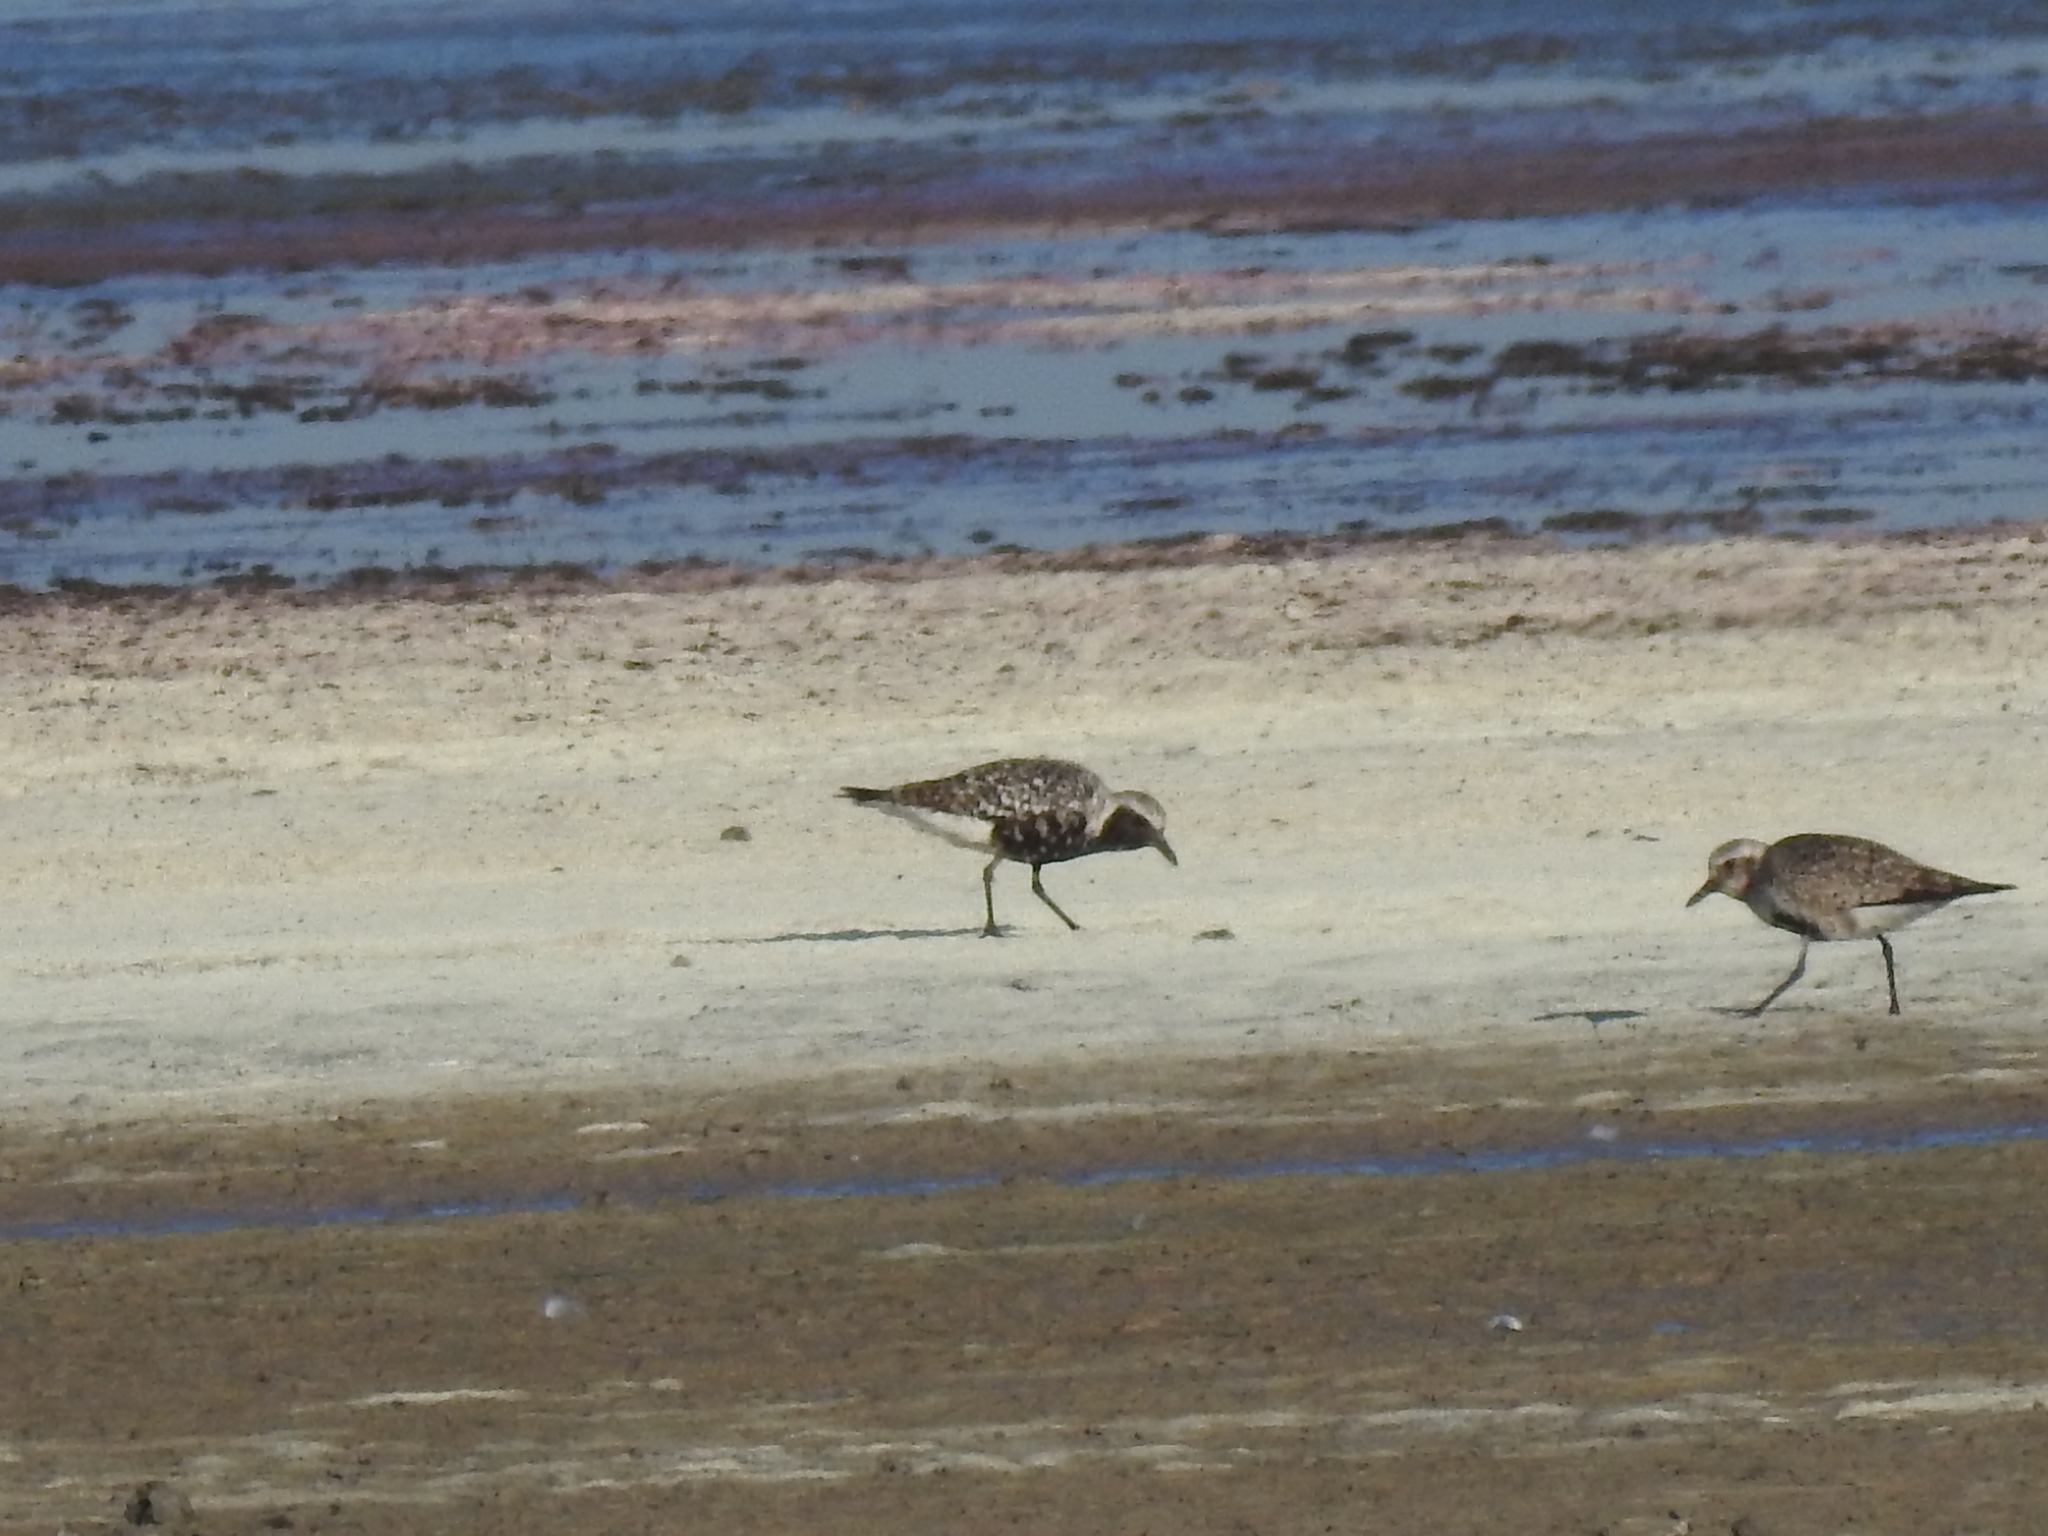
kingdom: Animalia
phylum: Chordata
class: Aves
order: Charadriiformes
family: Charadriidae
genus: Pluvialis
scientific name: Pluvialis squatarola
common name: Grey plover
